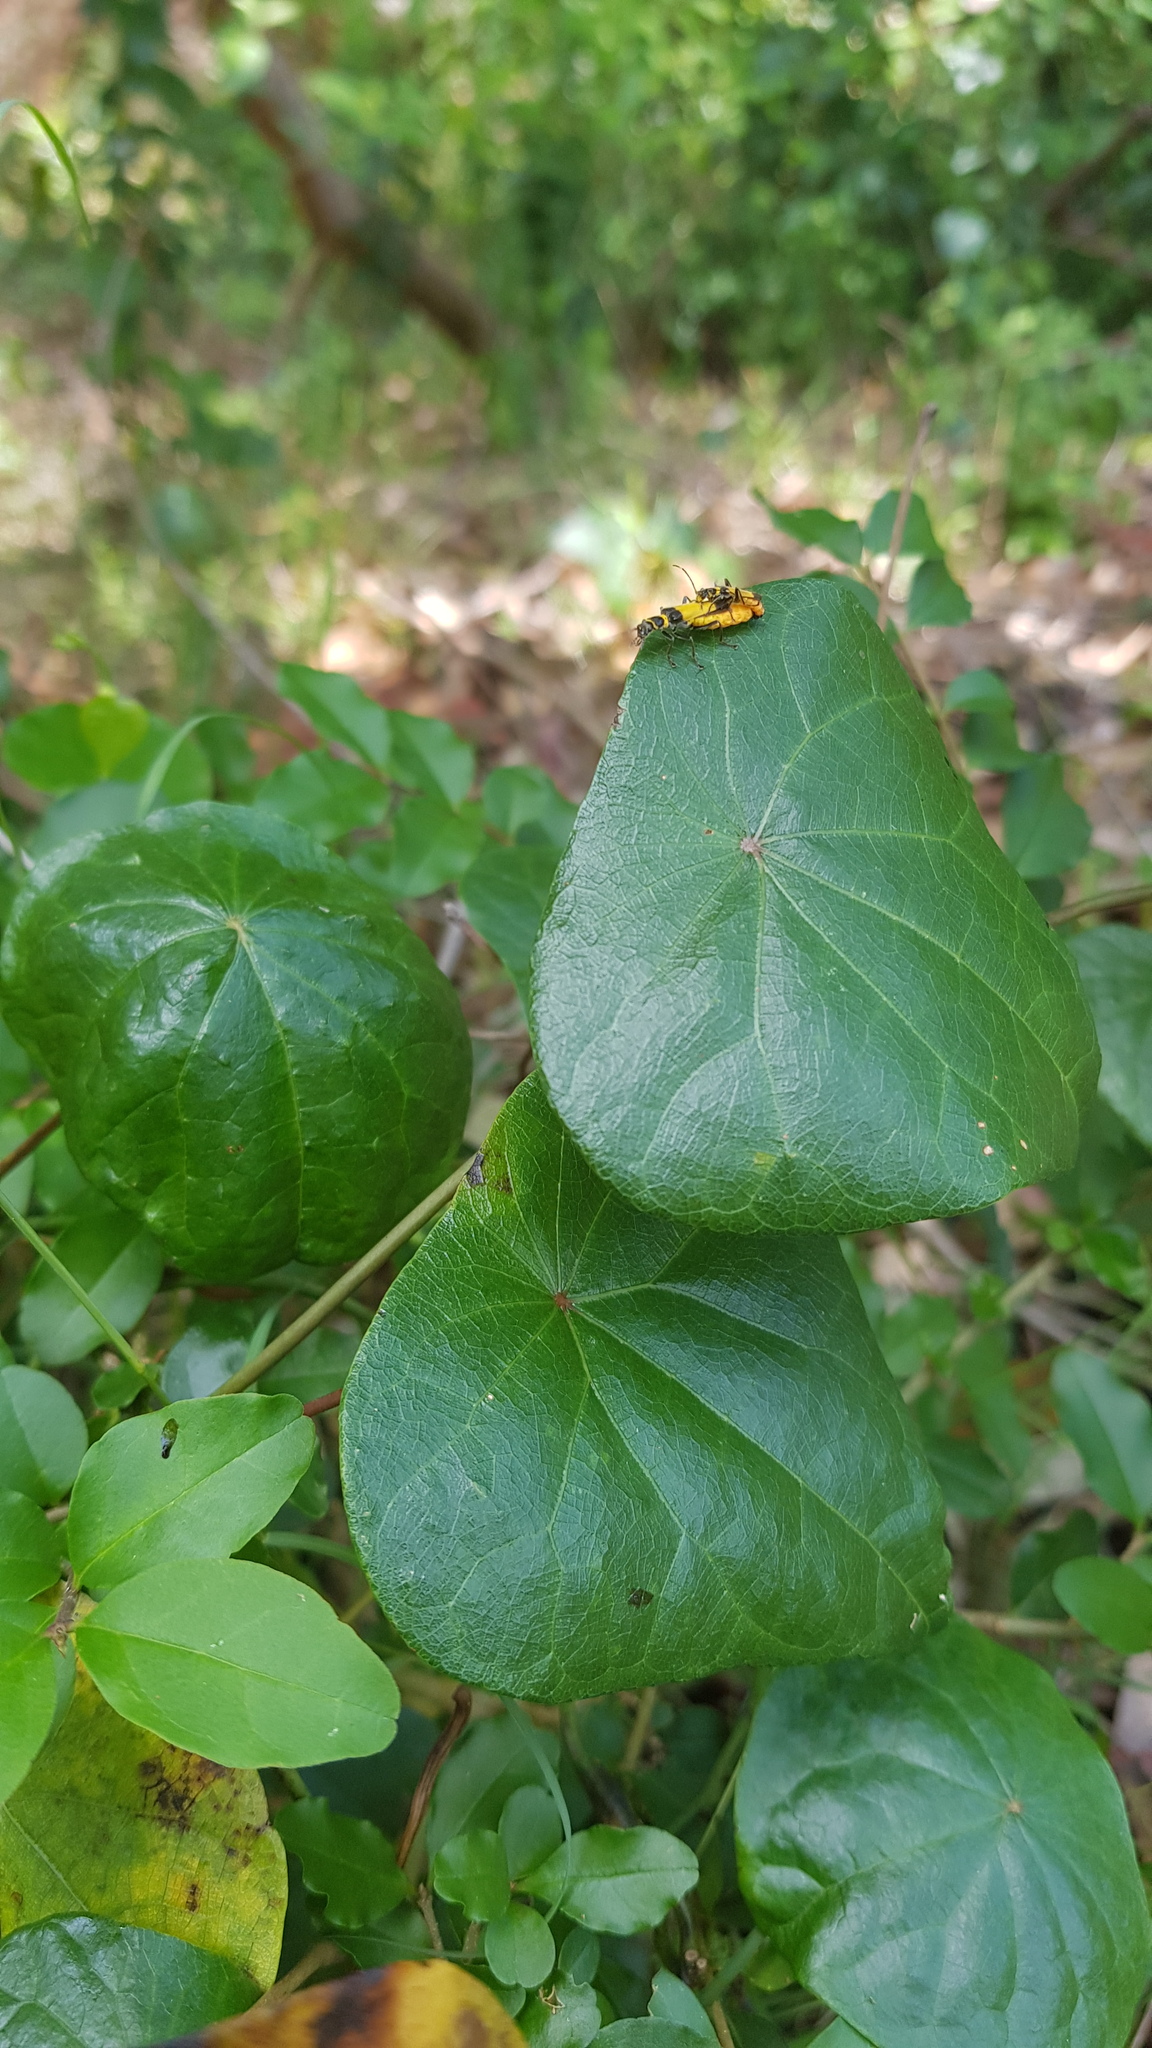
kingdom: Animalia
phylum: Arthropoda
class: Insecta
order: Coleoptera
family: Cantharidae
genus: Chauliognathus
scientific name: Chauliognathus
